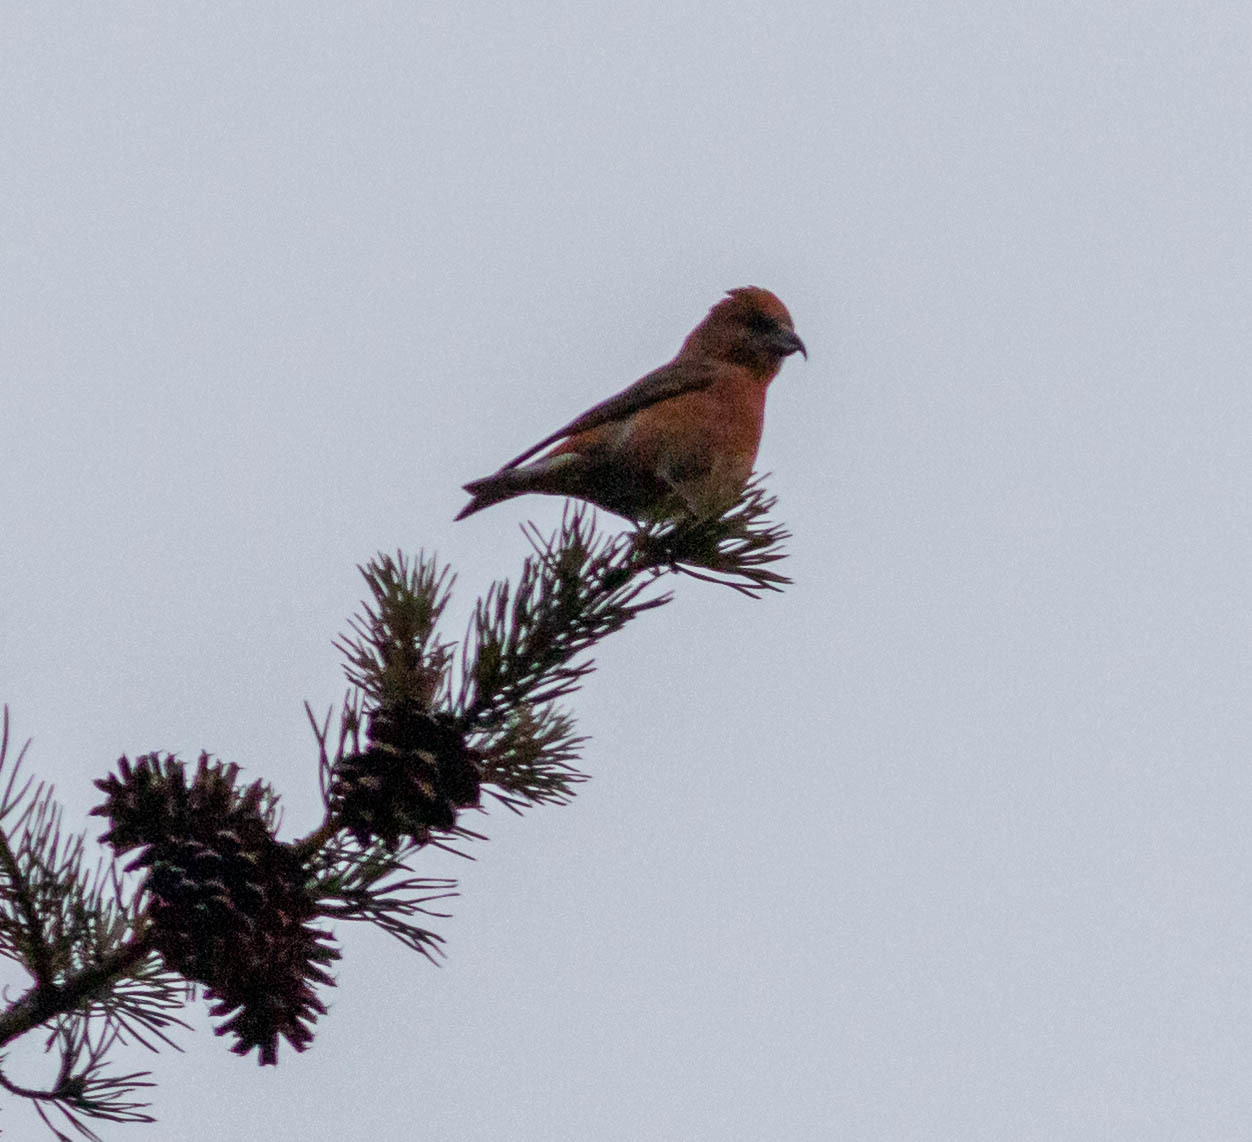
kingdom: Animalia
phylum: Chordata
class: Aves
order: Passeriformes
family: Fringillidae
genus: Loxia
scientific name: Loxia curvirostra
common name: Red crossbill
